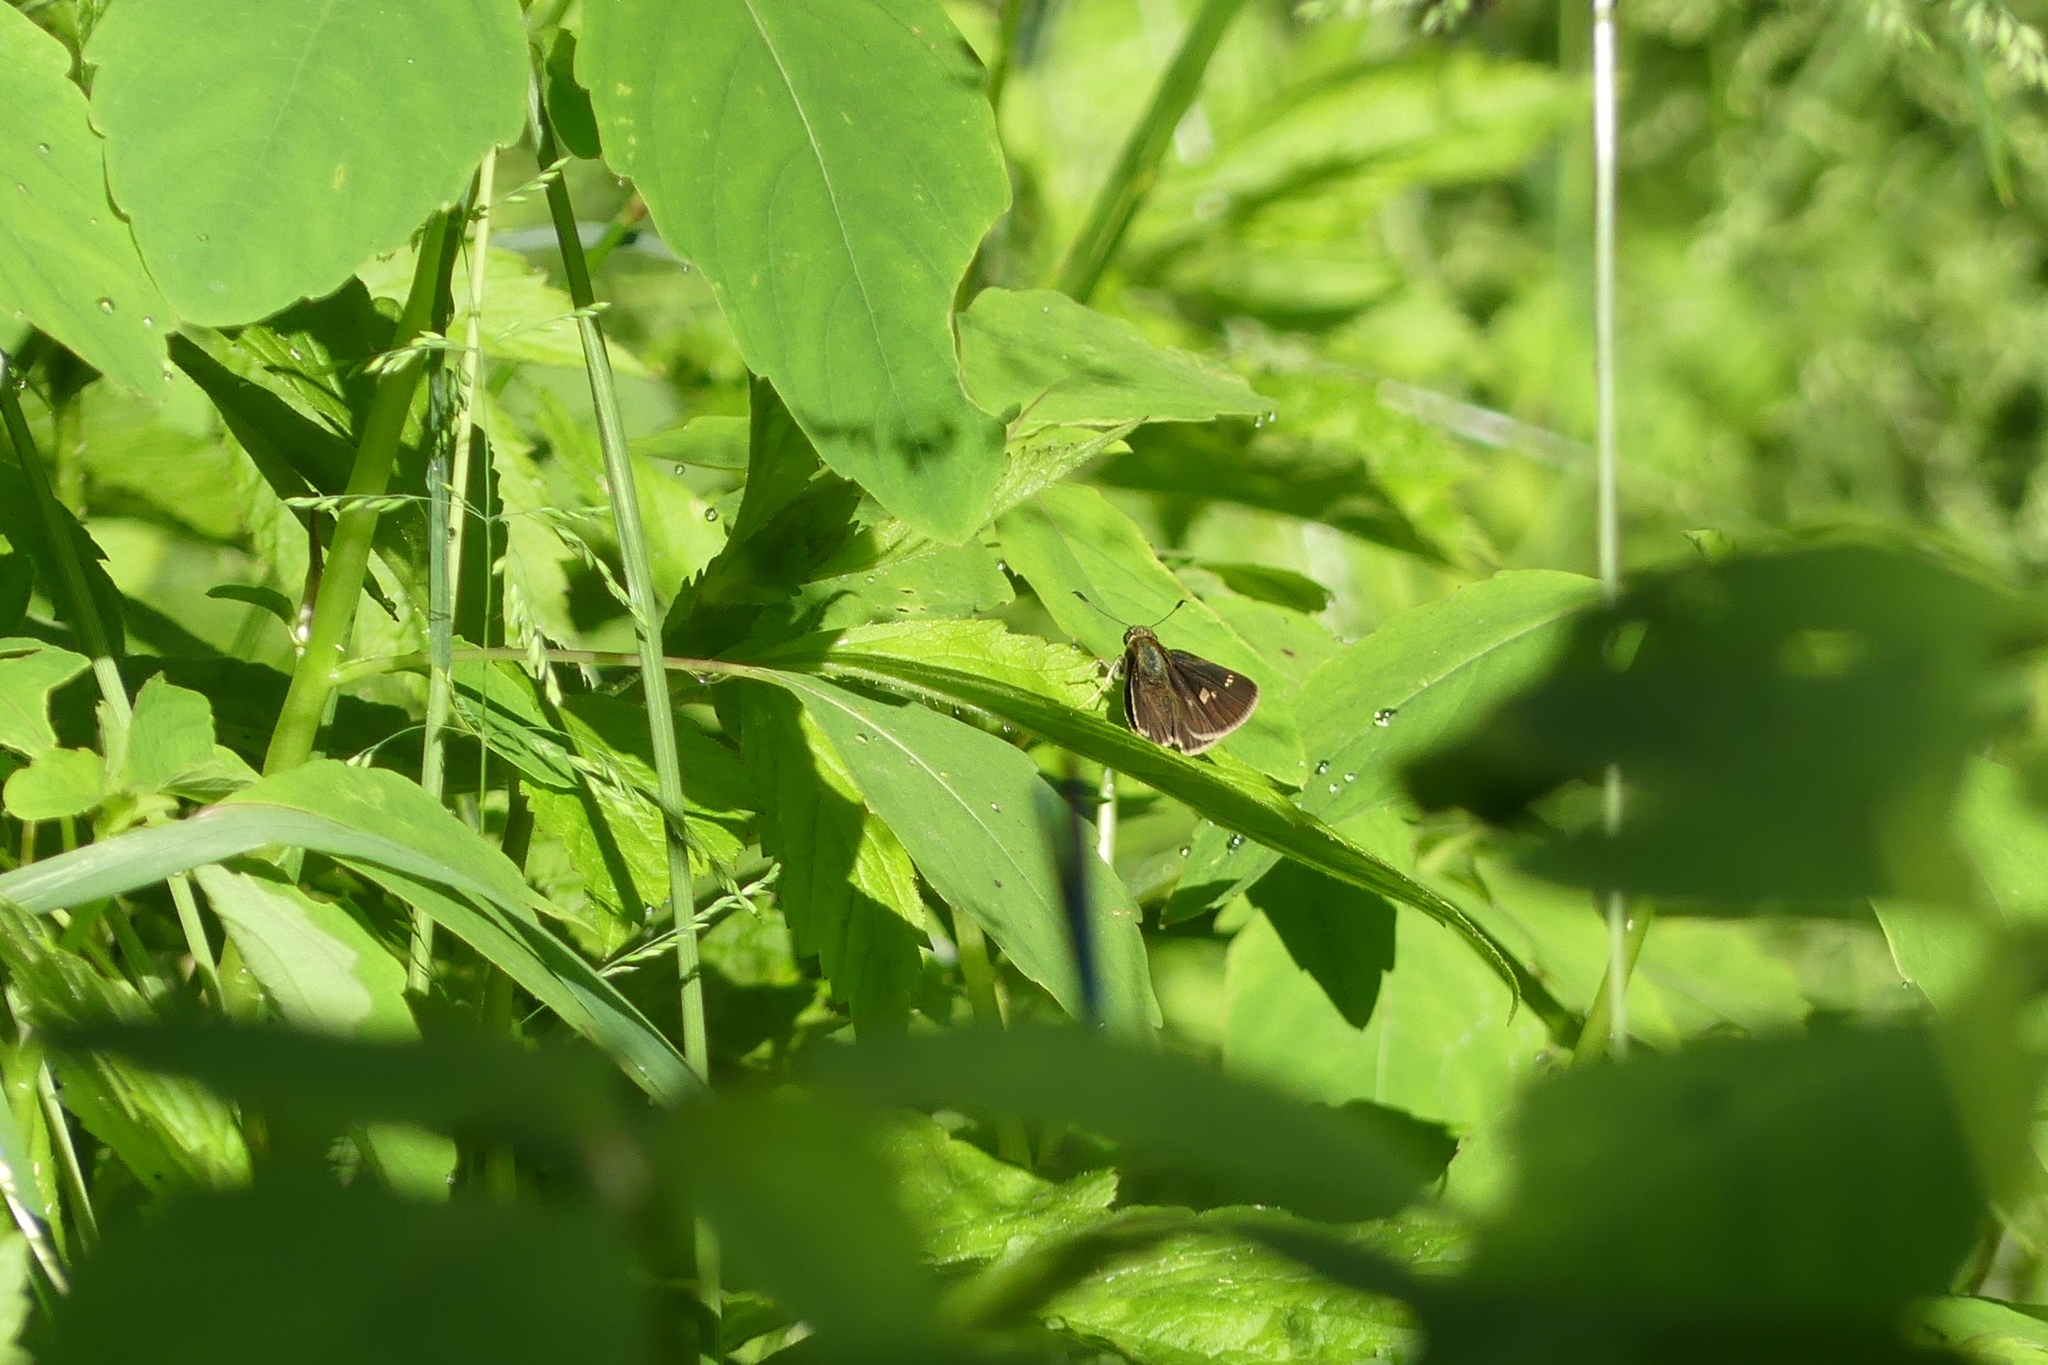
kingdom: Animalia
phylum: Arthropoda
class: Insecta
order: Lepidoptera
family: Hesperiidae
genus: Vernia
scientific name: Vernia verna
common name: Little glassywing
